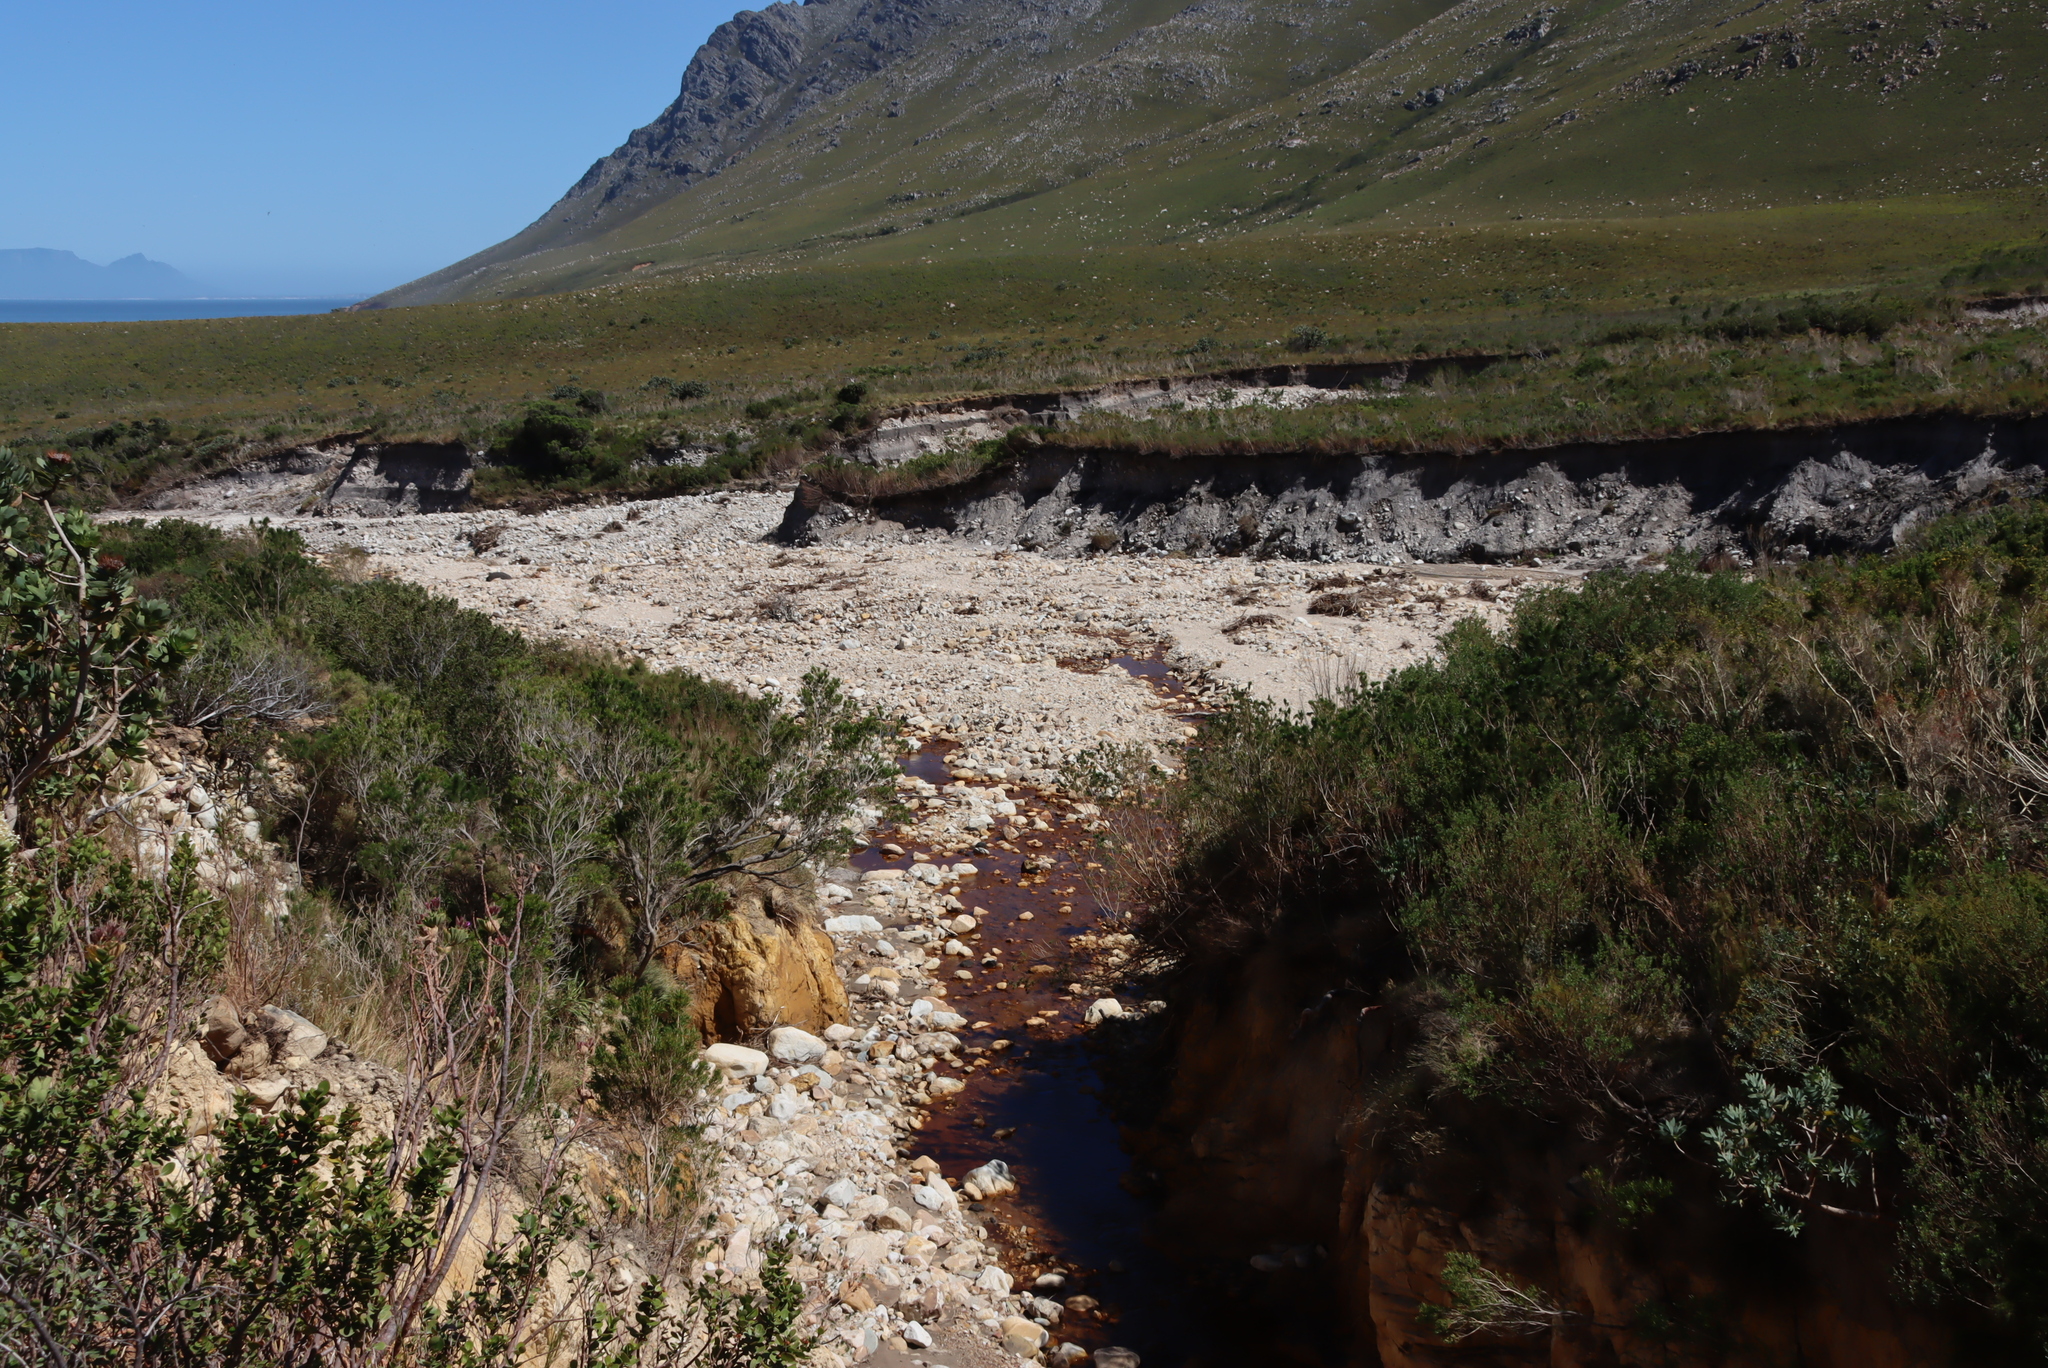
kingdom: Plantae
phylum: Tracheophyta
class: Magnoliopsida
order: Proteales
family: Proteaceae
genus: Protea
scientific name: Protea nitida
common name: Tree protea
